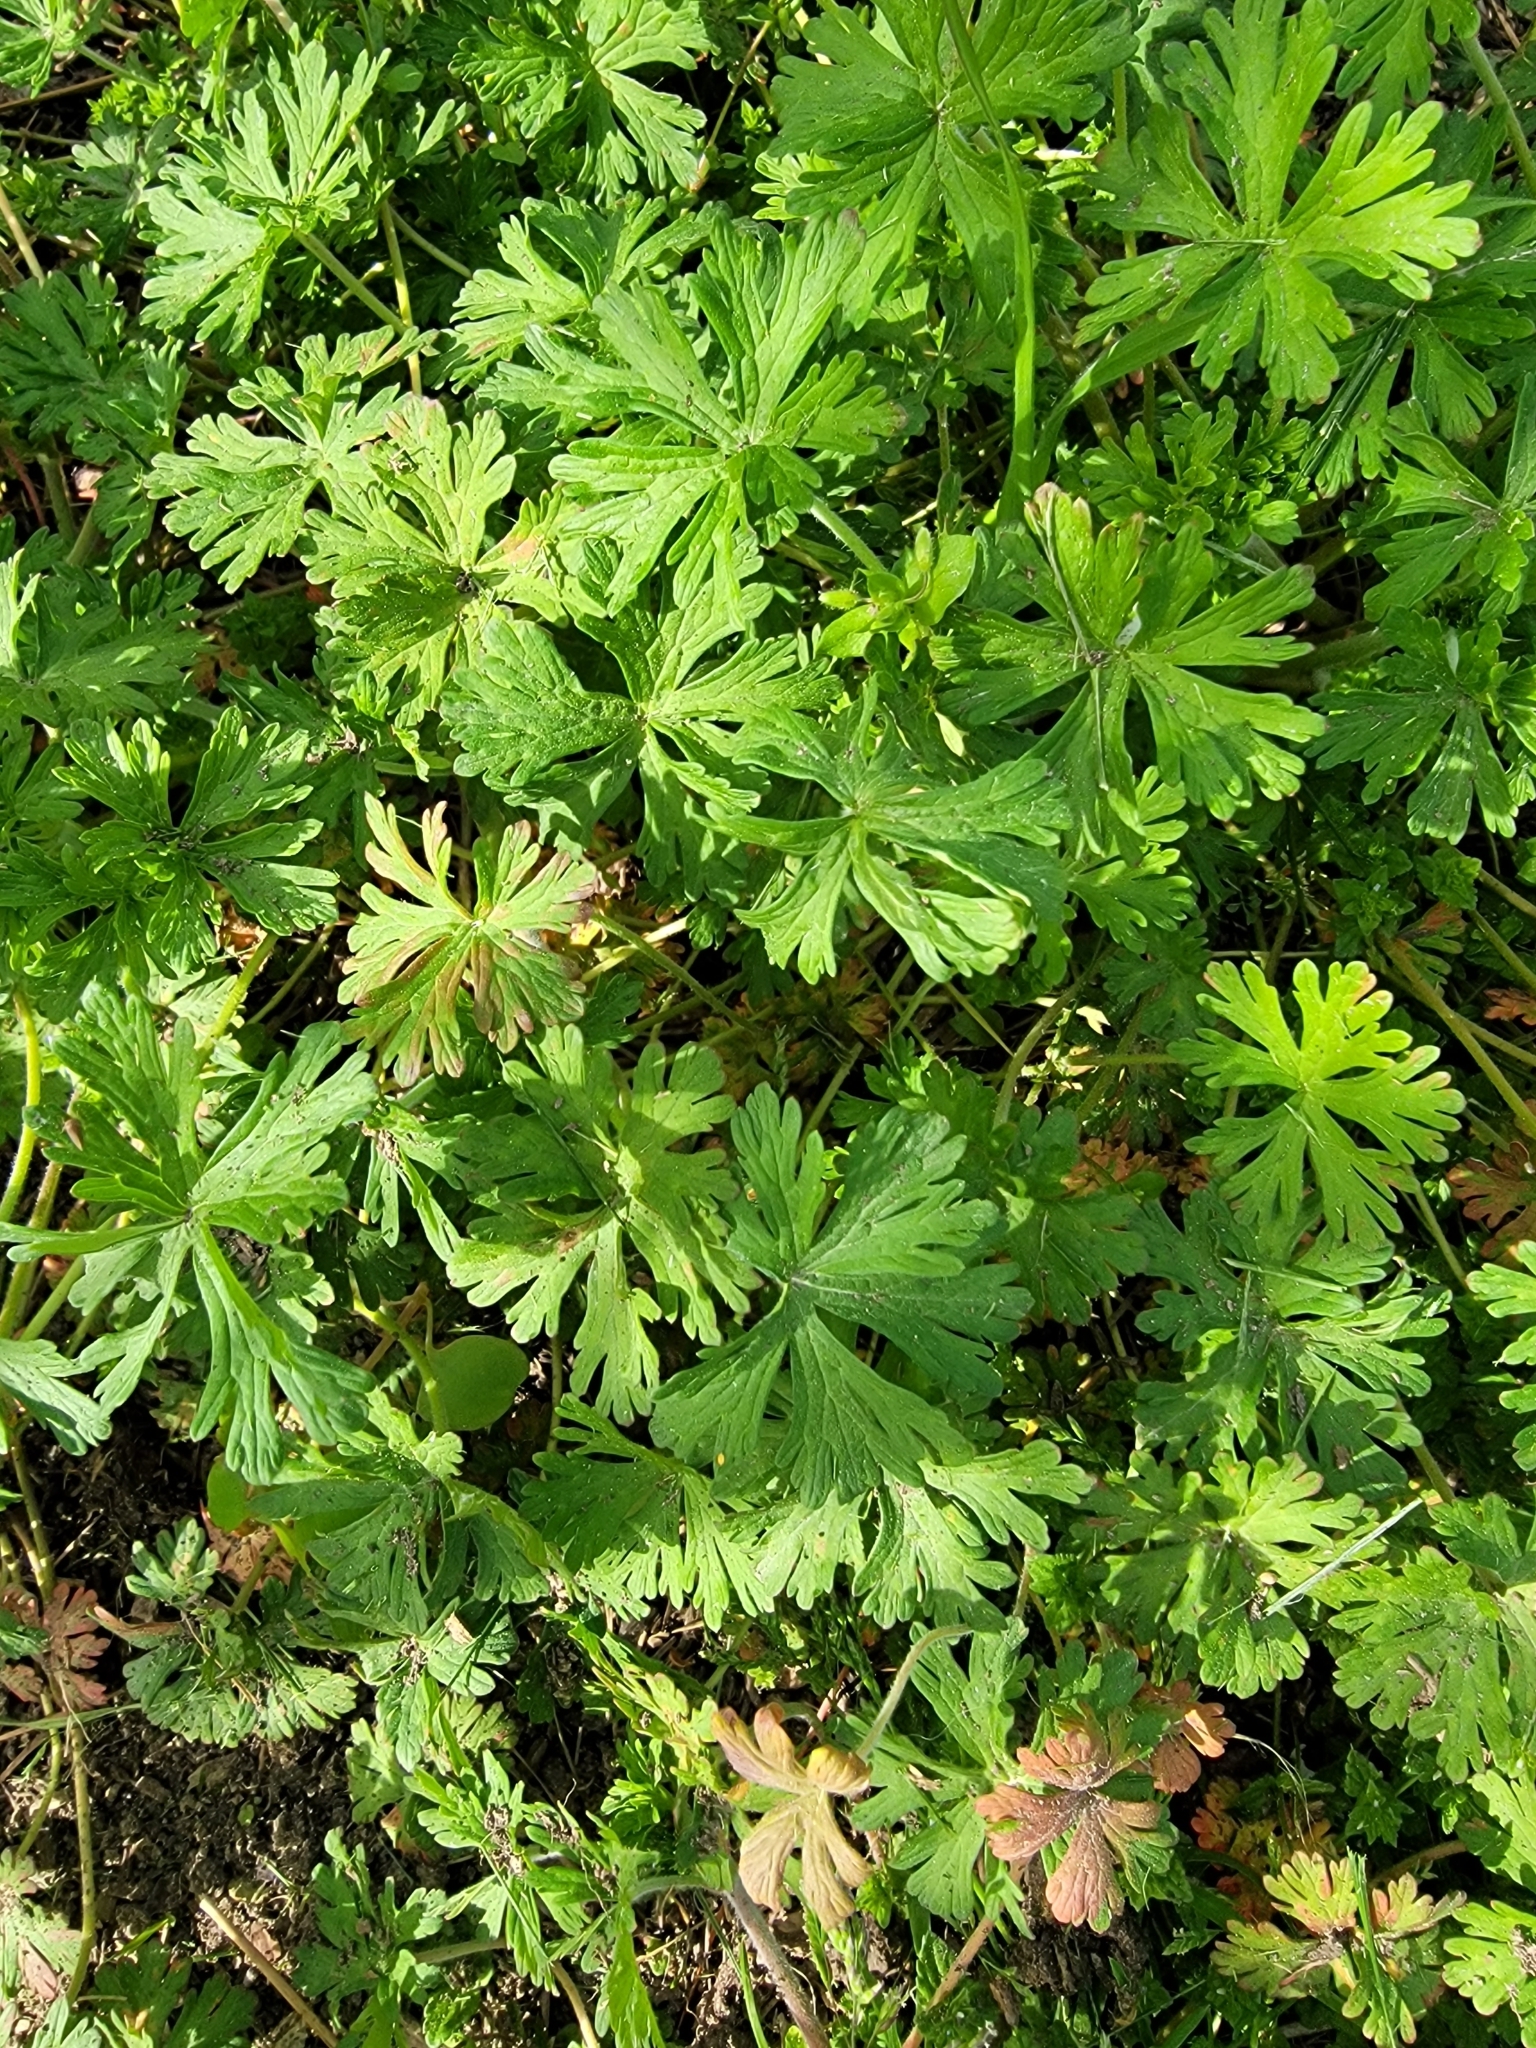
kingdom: Plantae
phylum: Tracheophyta
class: Magnoliopsida
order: Geraniales
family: Geraniaceae
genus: Geranium
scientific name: Geranium carolinianum
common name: Carolina crane's-bill
